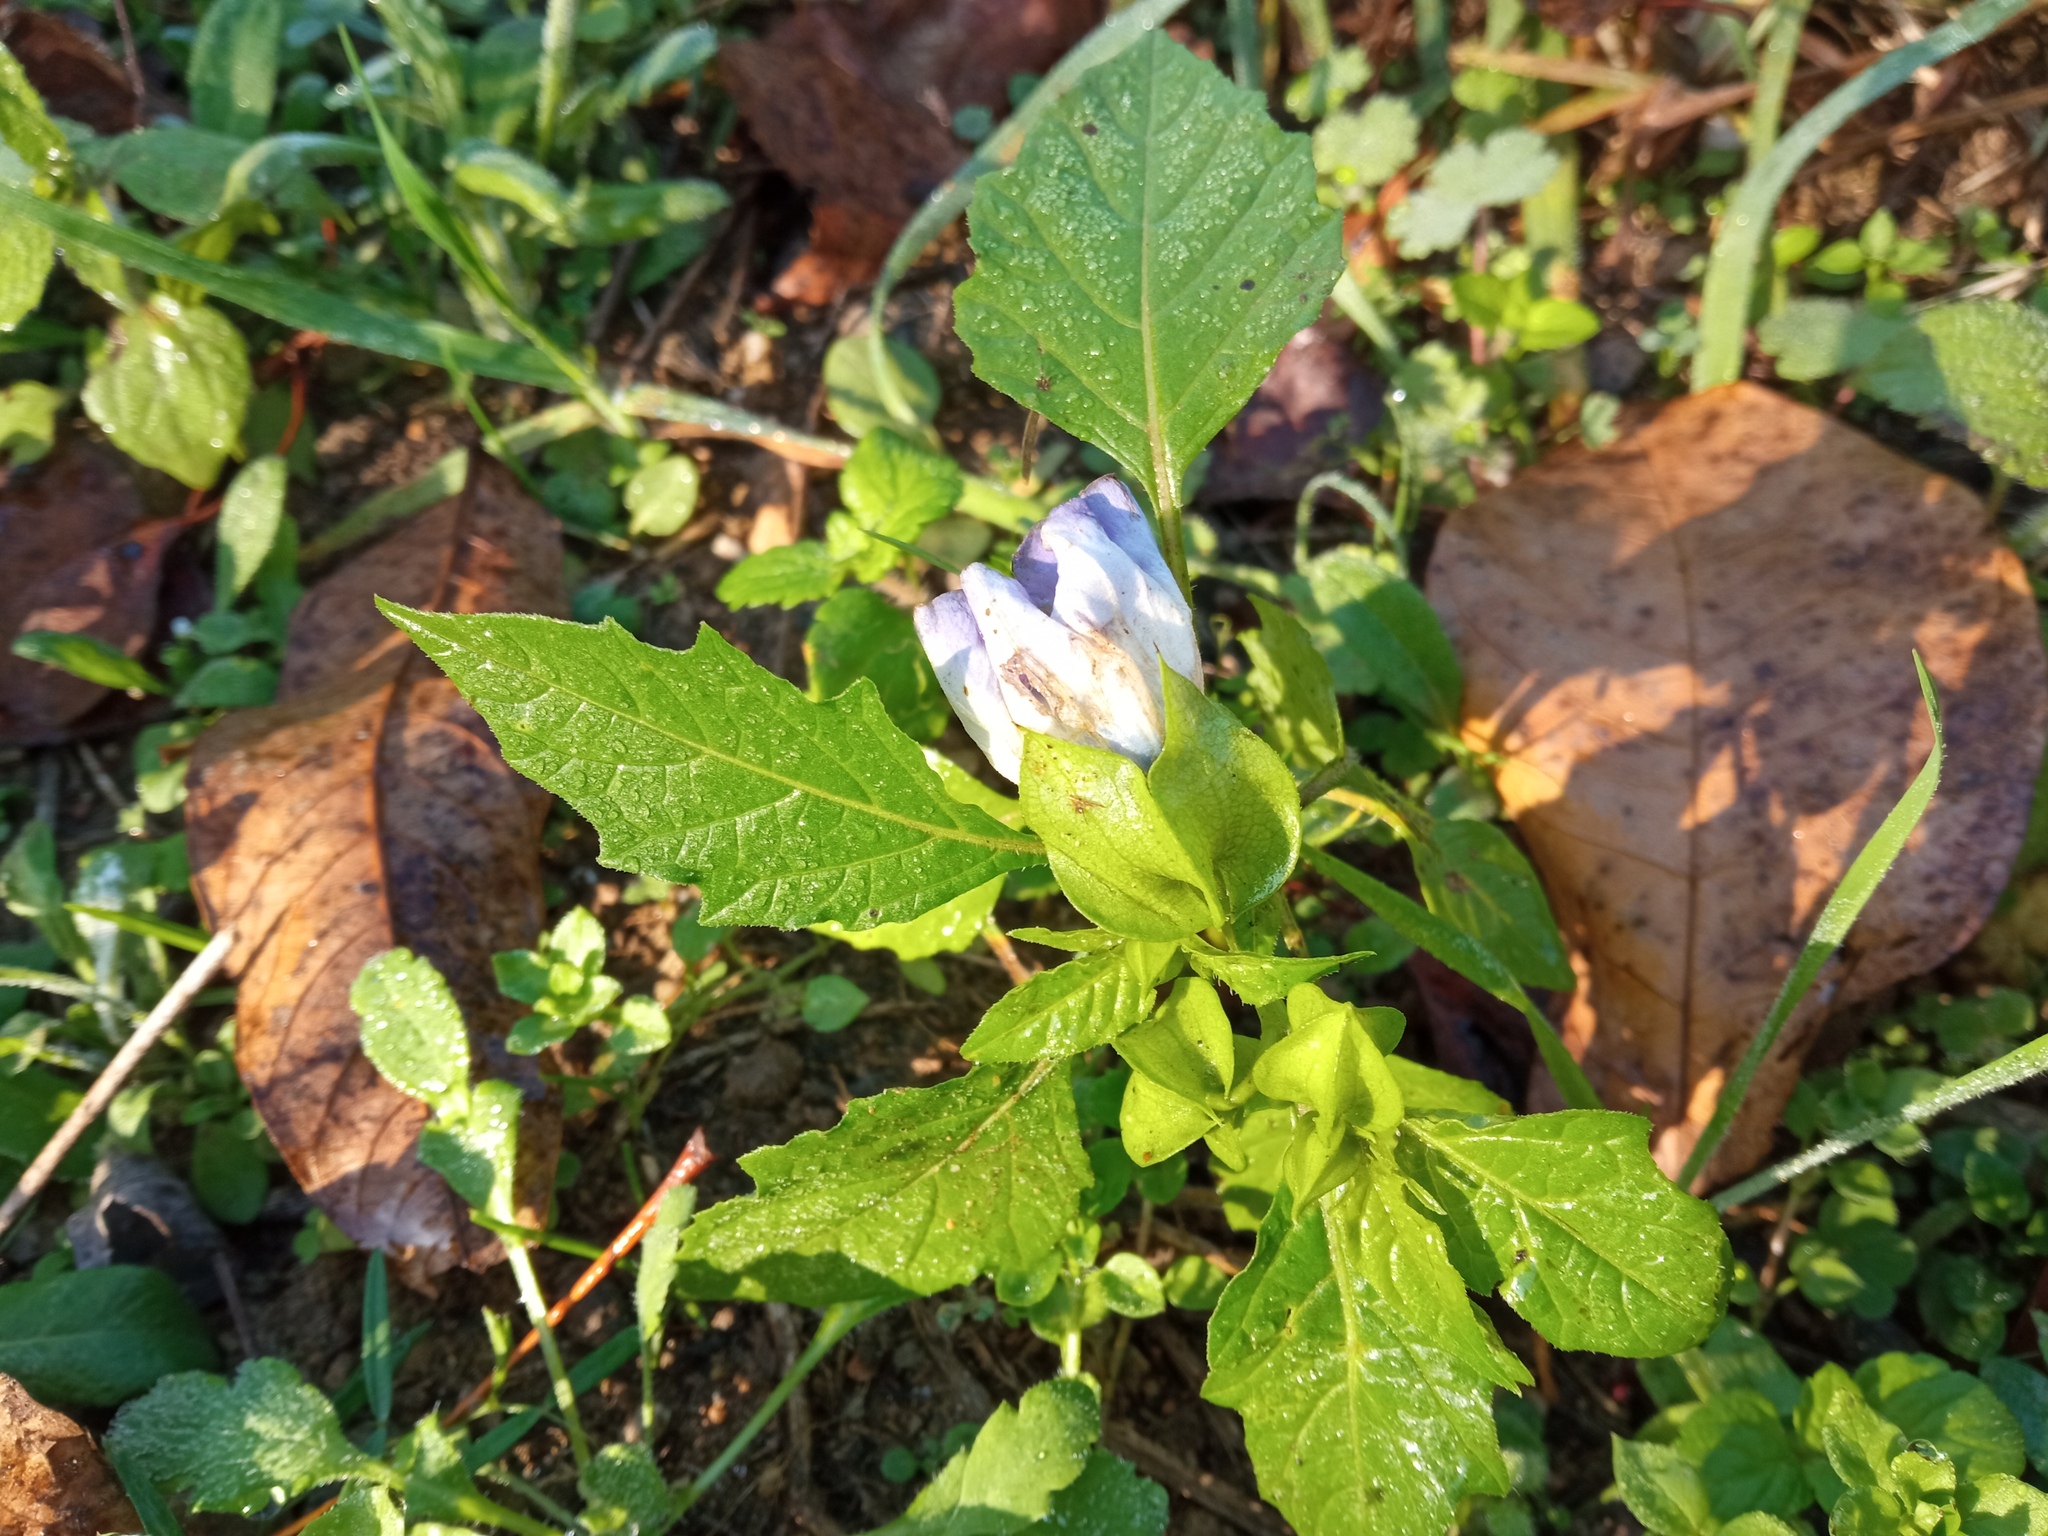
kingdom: Plantae
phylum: Tracheophyta
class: Magnoliopsida
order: Solanales
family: Solanaceae
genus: Nicandra
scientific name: Nicandra physalodes
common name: Apple-of-peru
